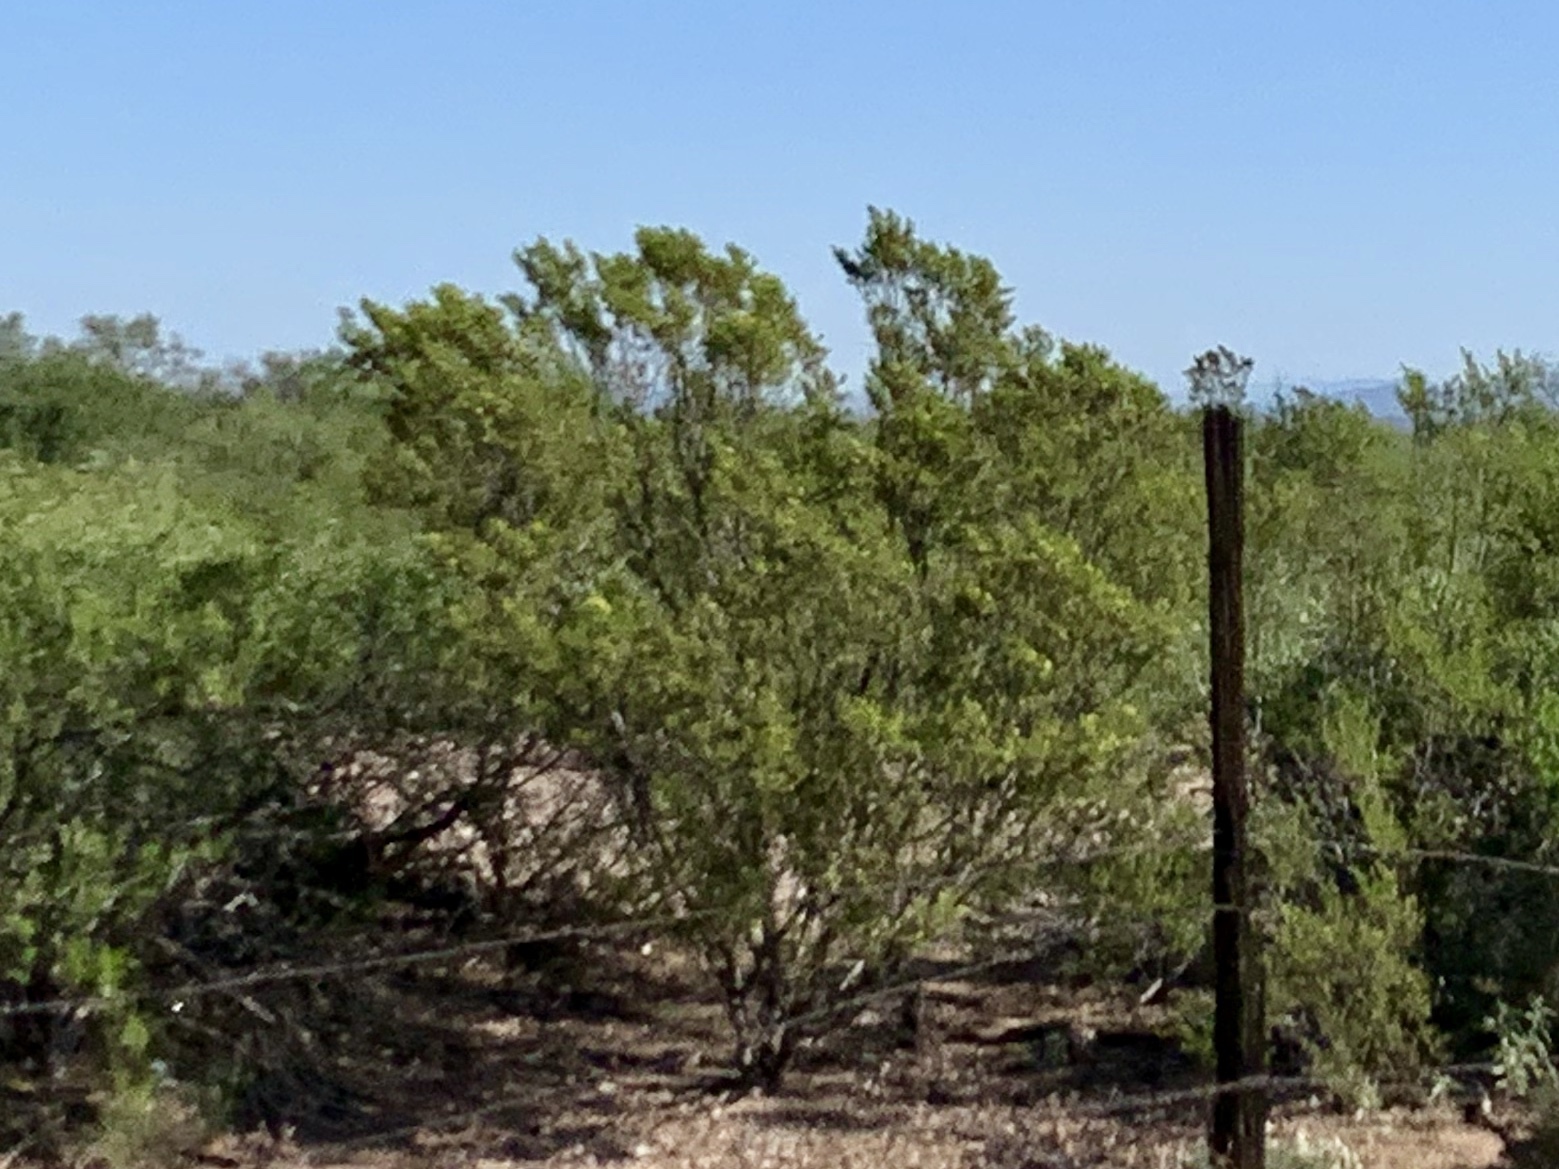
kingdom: Plantae
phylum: Tracheophyta
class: Magnoliopsida
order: Zygophyllales
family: Zygophyllaceae
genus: Larrea
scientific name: Larrea tridentata
